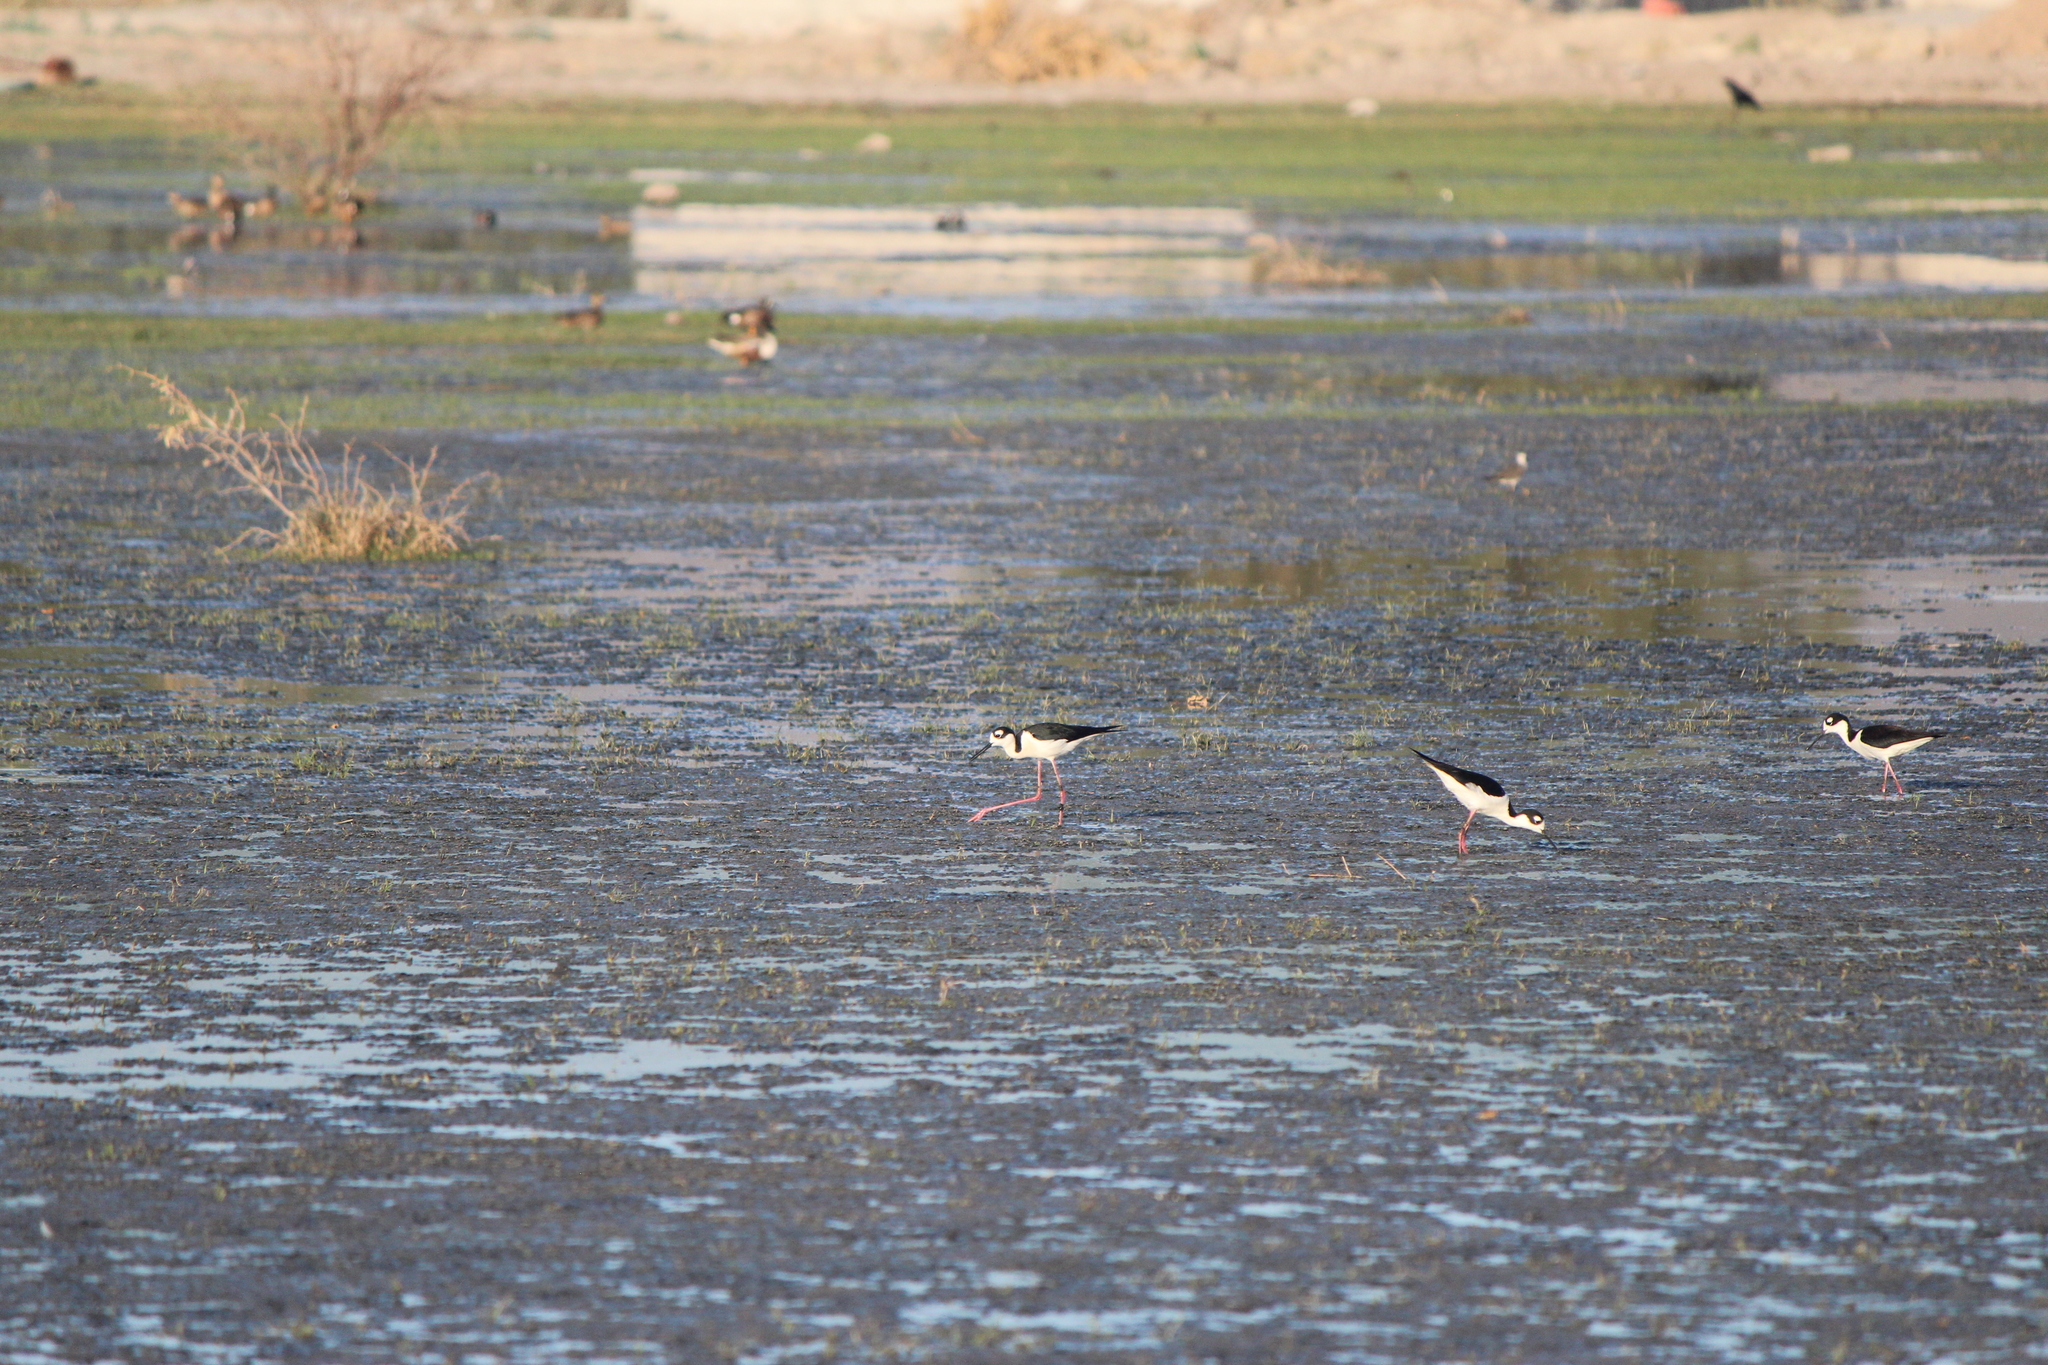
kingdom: Animalia
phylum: Chordata
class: Aves
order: Charadriiformes
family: Recurvirostridae
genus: Himantopus
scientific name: Himantopus mexicanus
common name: Black-necked stilt
